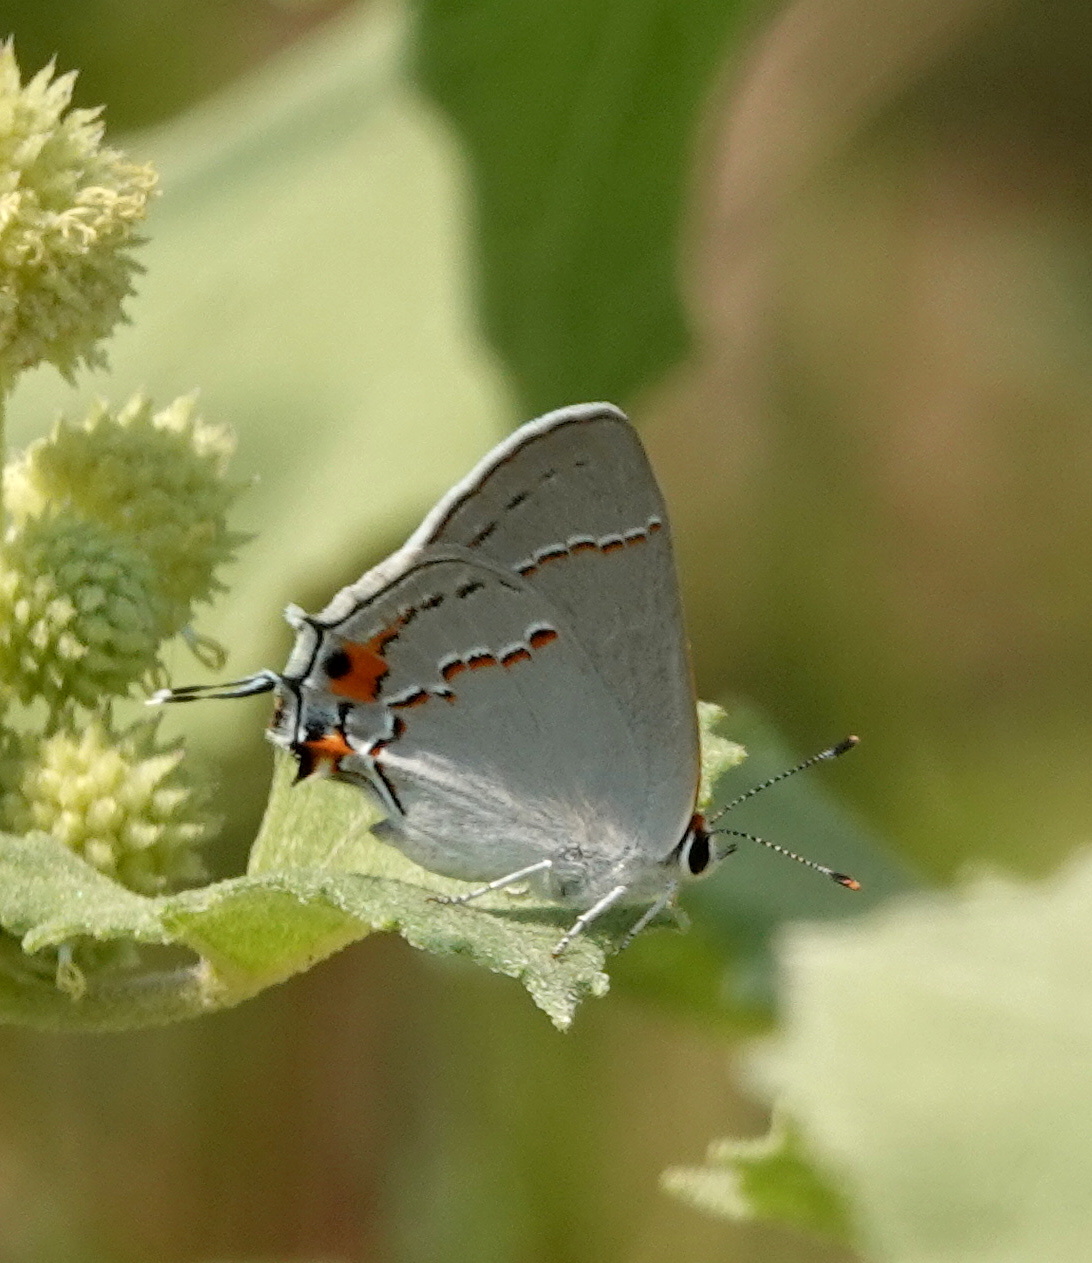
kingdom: Animalia
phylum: Arthropoda
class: Insecta
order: Lepidoptera
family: Lycaenidae
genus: Strymon
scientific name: Strymon melinus
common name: Gray hairstreak
